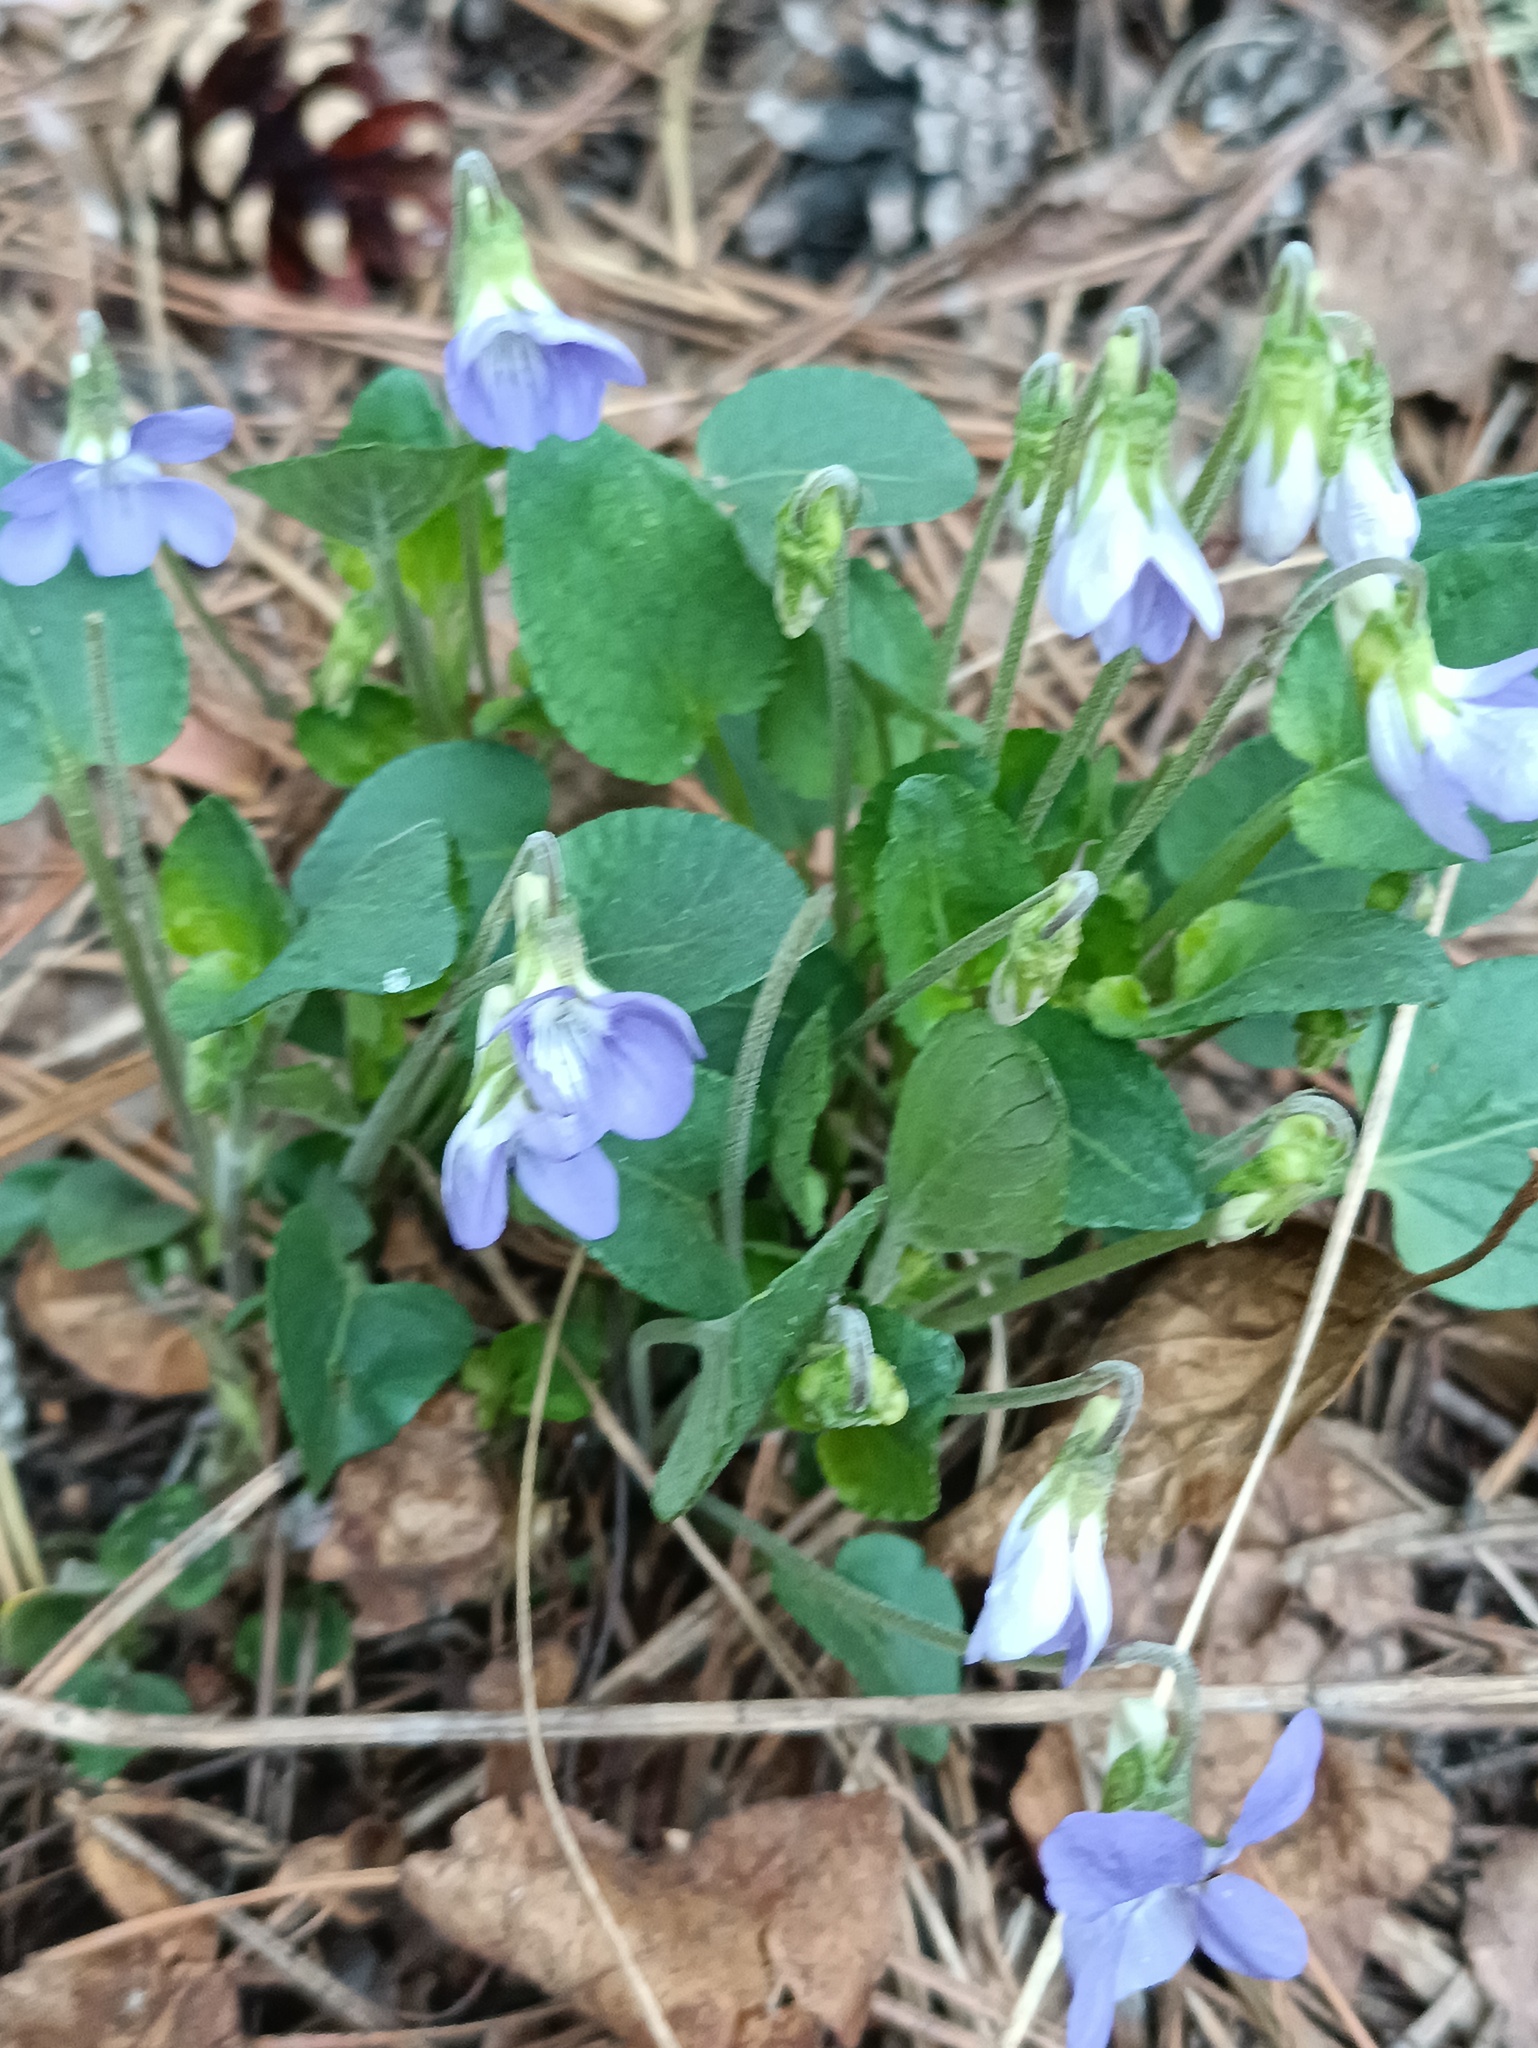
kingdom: Plantae
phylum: Tracheophyta
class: Magnoliopsida
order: Malpighiales
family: Violaceae
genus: Viola
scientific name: Viola rupestris
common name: Teesdale violet
